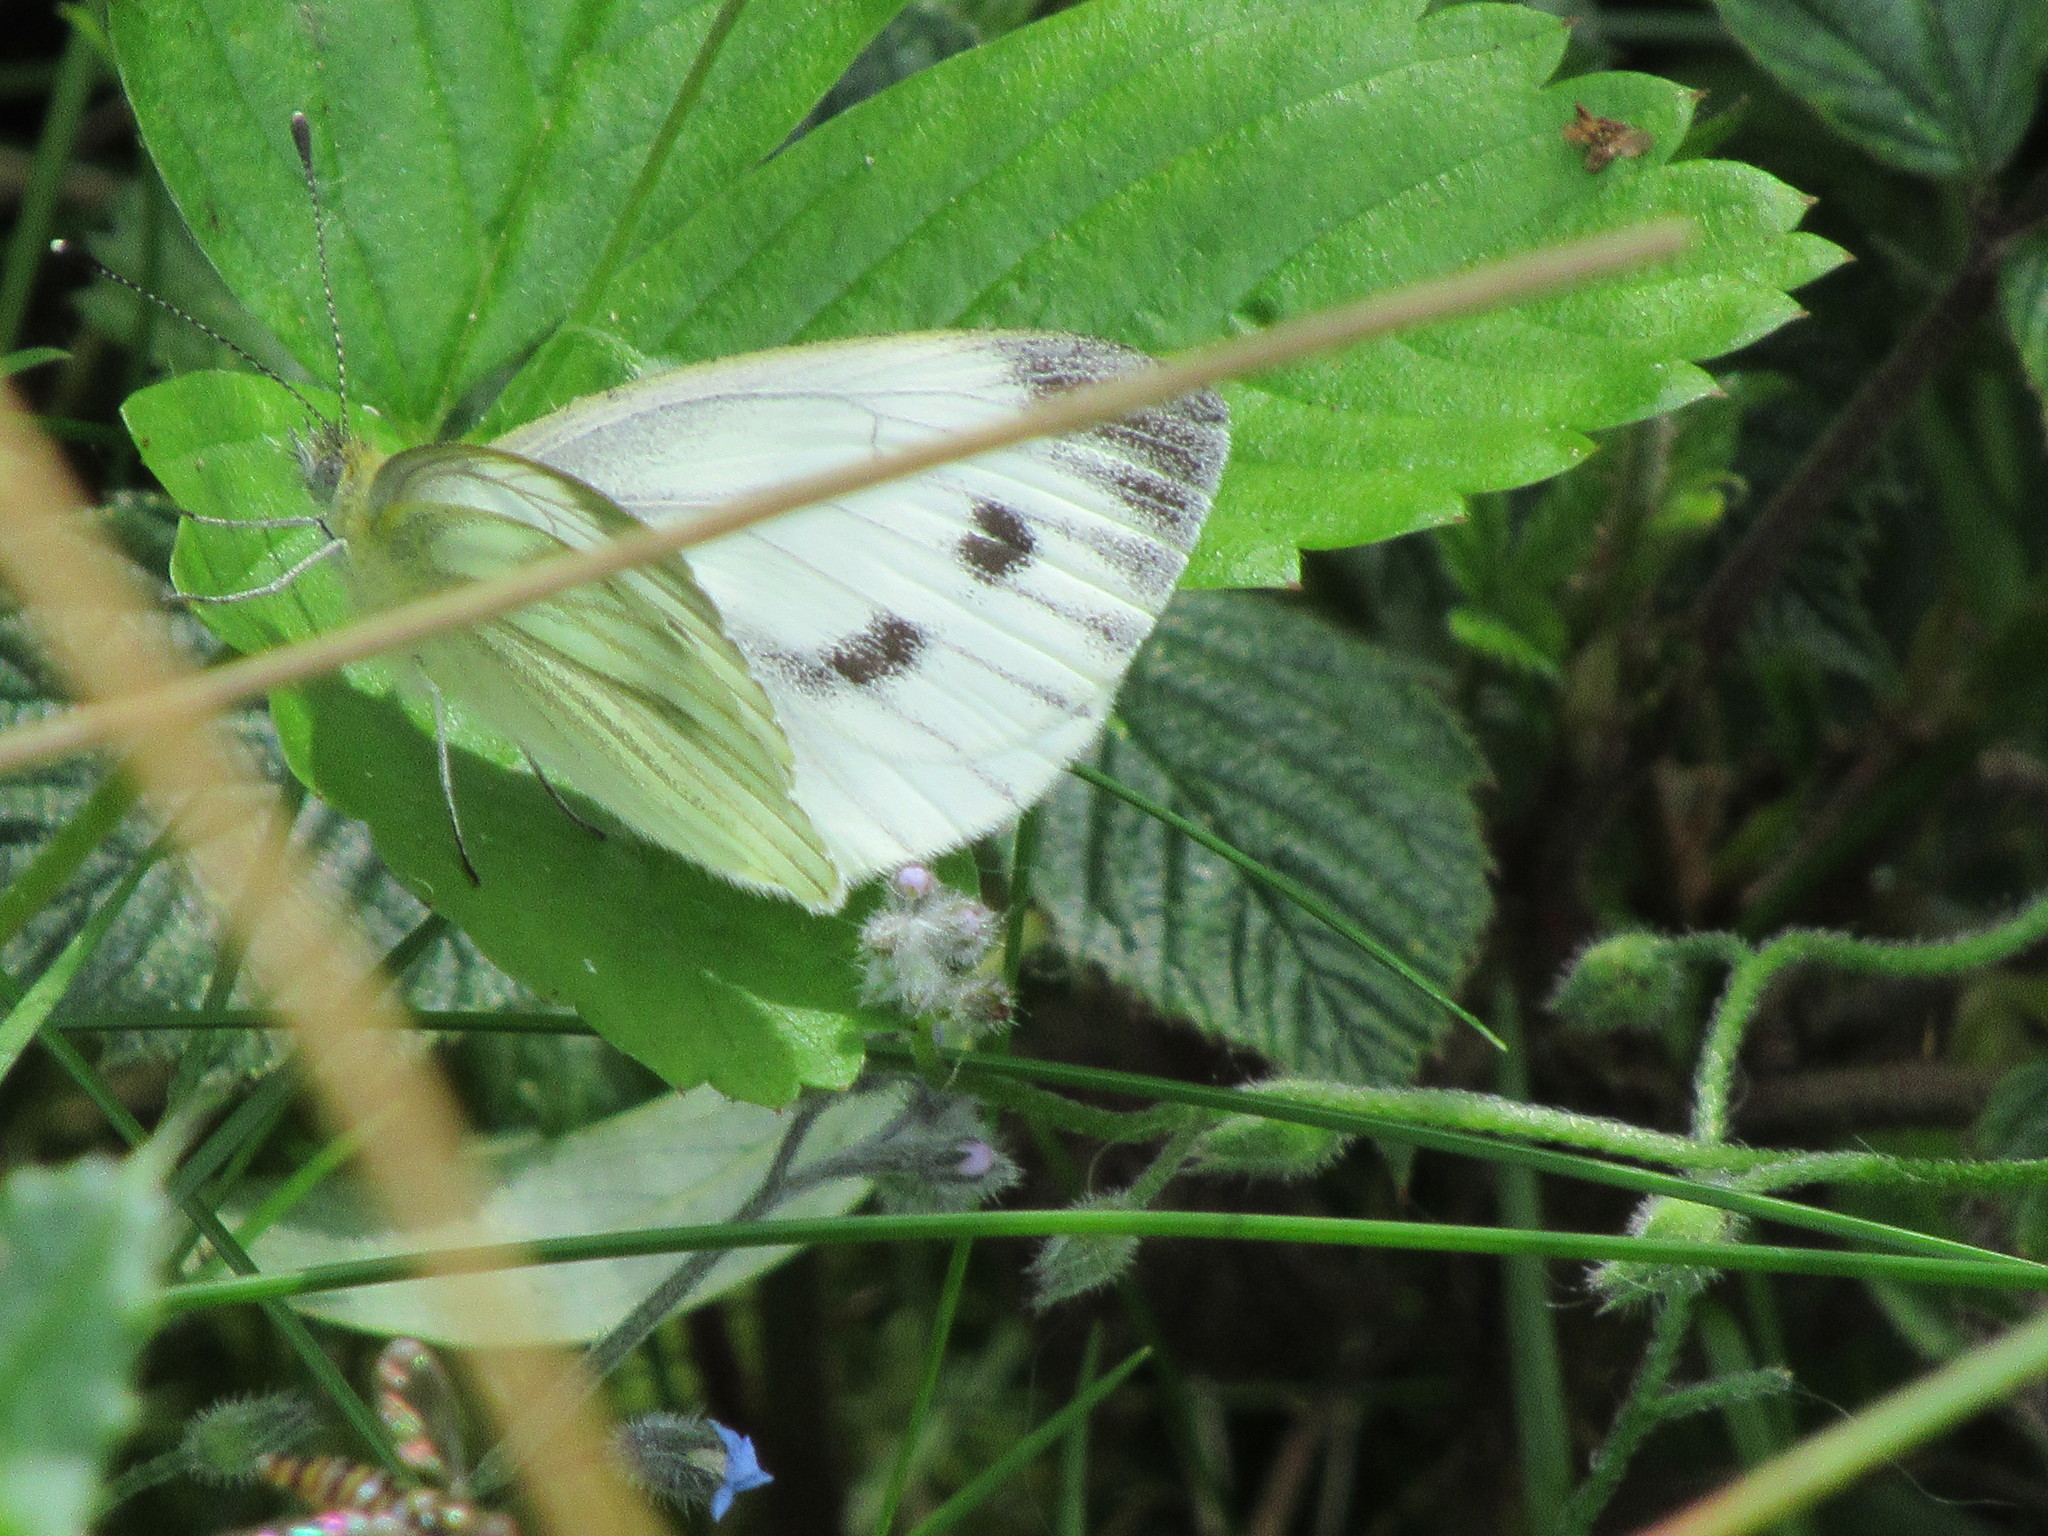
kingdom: Animalia
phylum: Arthropoda
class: Insecta
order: Lepidoptera
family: Pieridae
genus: Pieris
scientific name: Pieris napi
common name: Green-veined white
